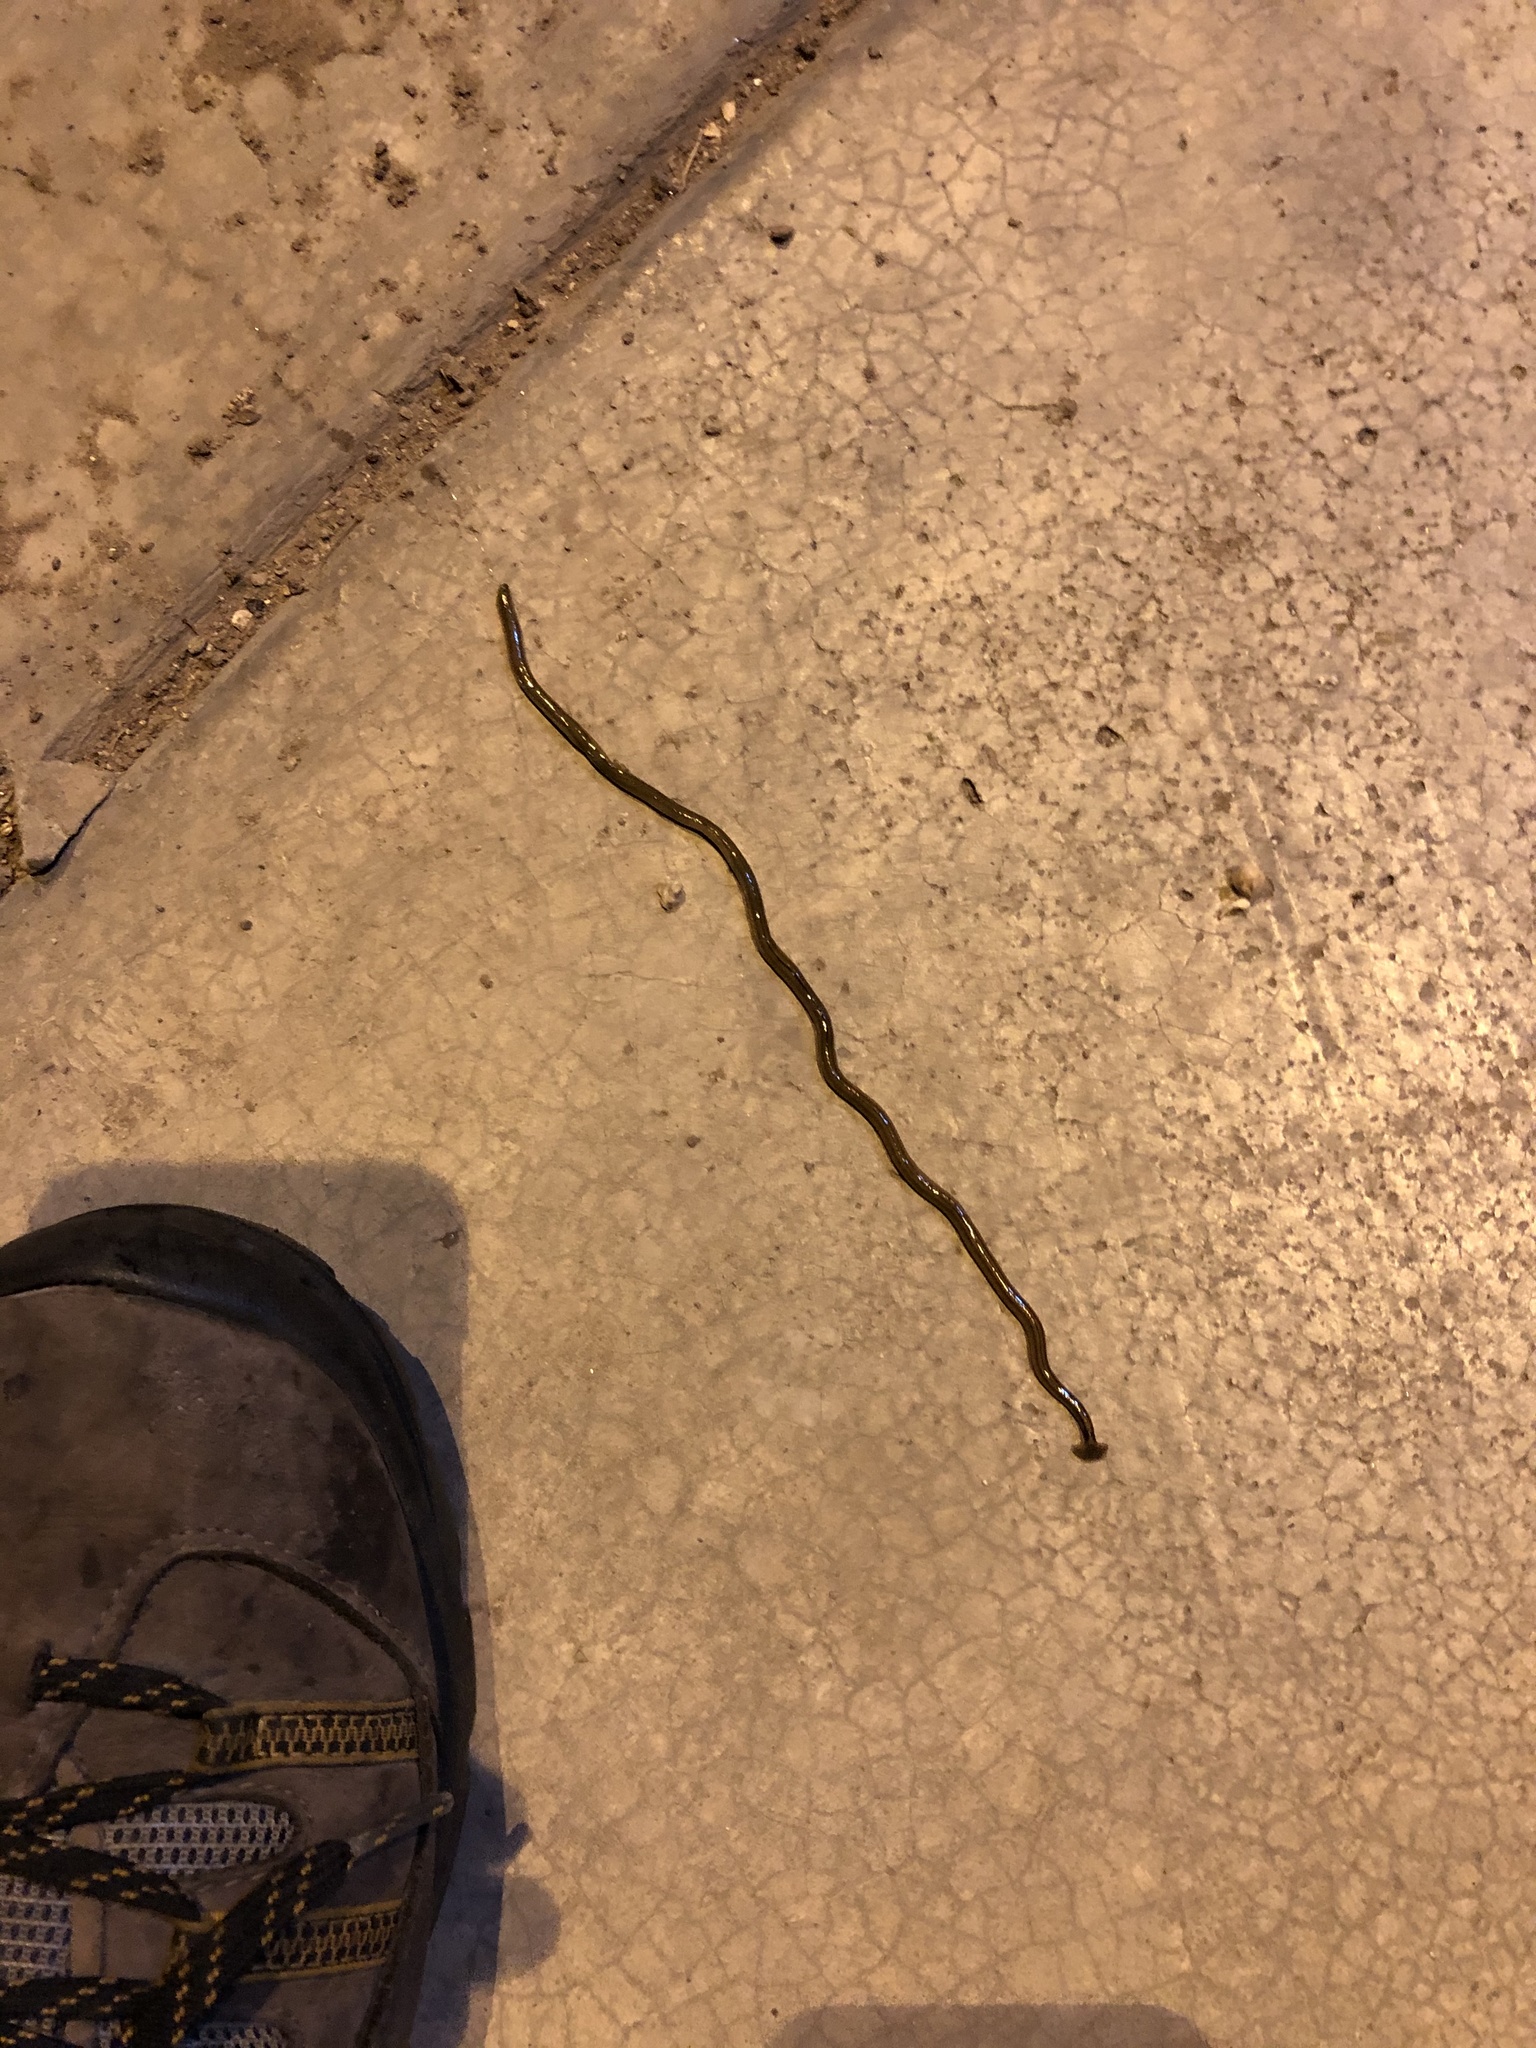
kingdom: Animalia
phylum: Platyhelminthes
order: Tricladida
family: Geoplanidae
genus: Bipalium
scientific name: Bipalium kewense
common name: Hammerhead flatworm
